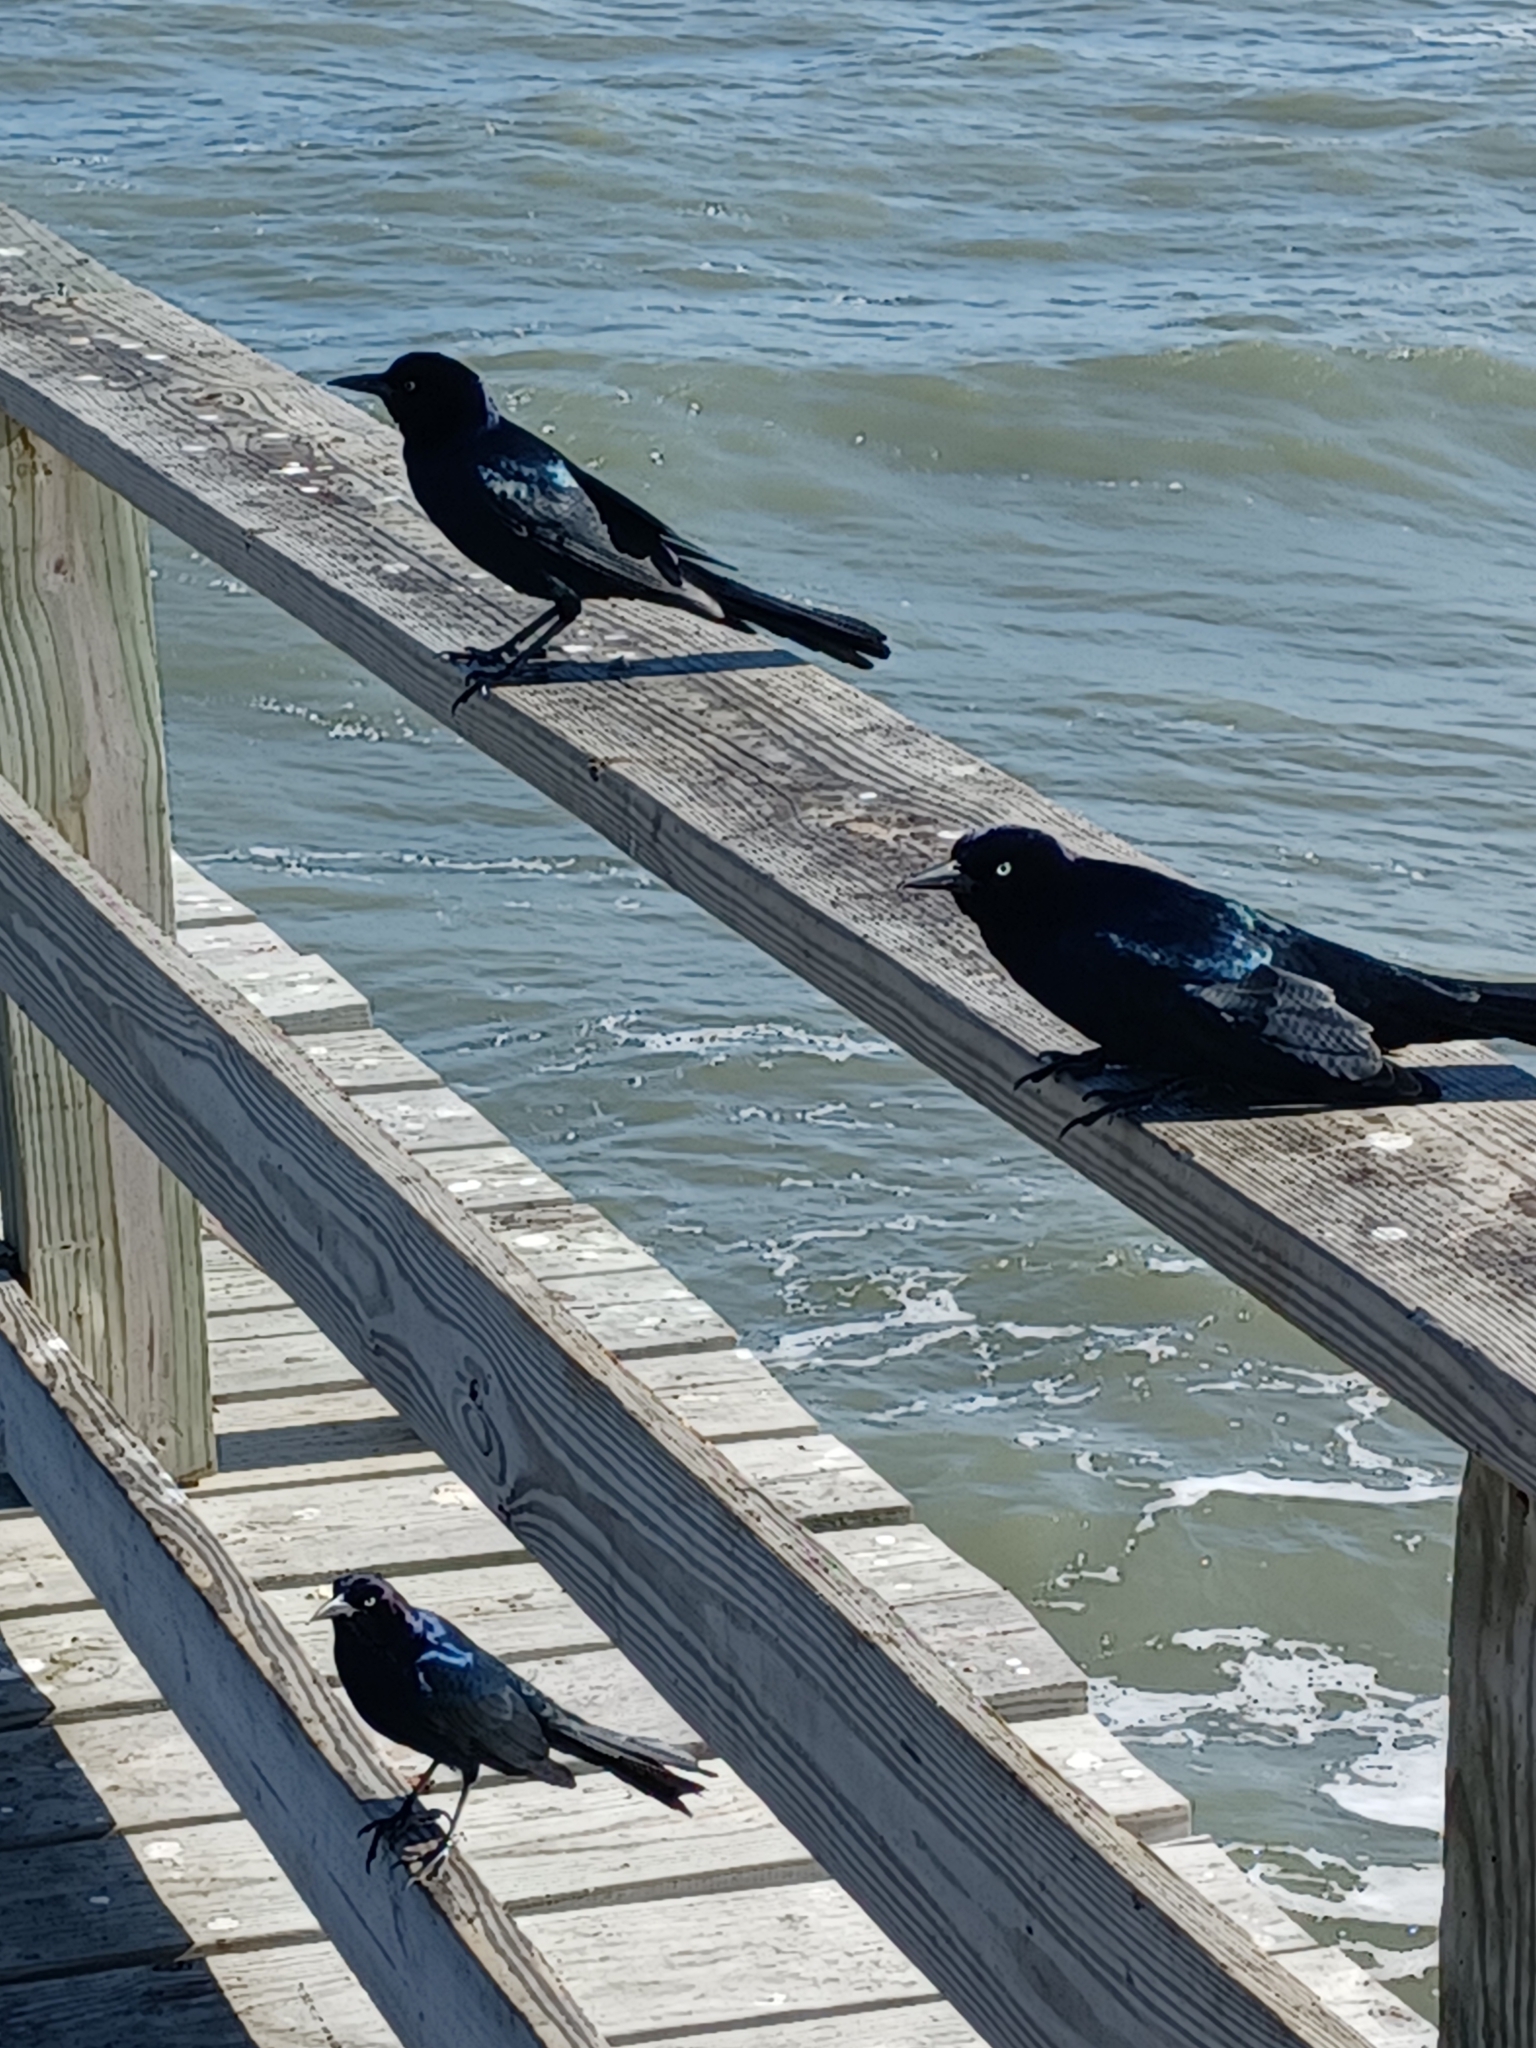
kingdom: Animalia
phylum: Chordata
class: Aves
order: Passeriformes
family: Icteridae
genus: Quiscalus
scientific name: Quiscalus major
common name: Boat-tailed grackle
